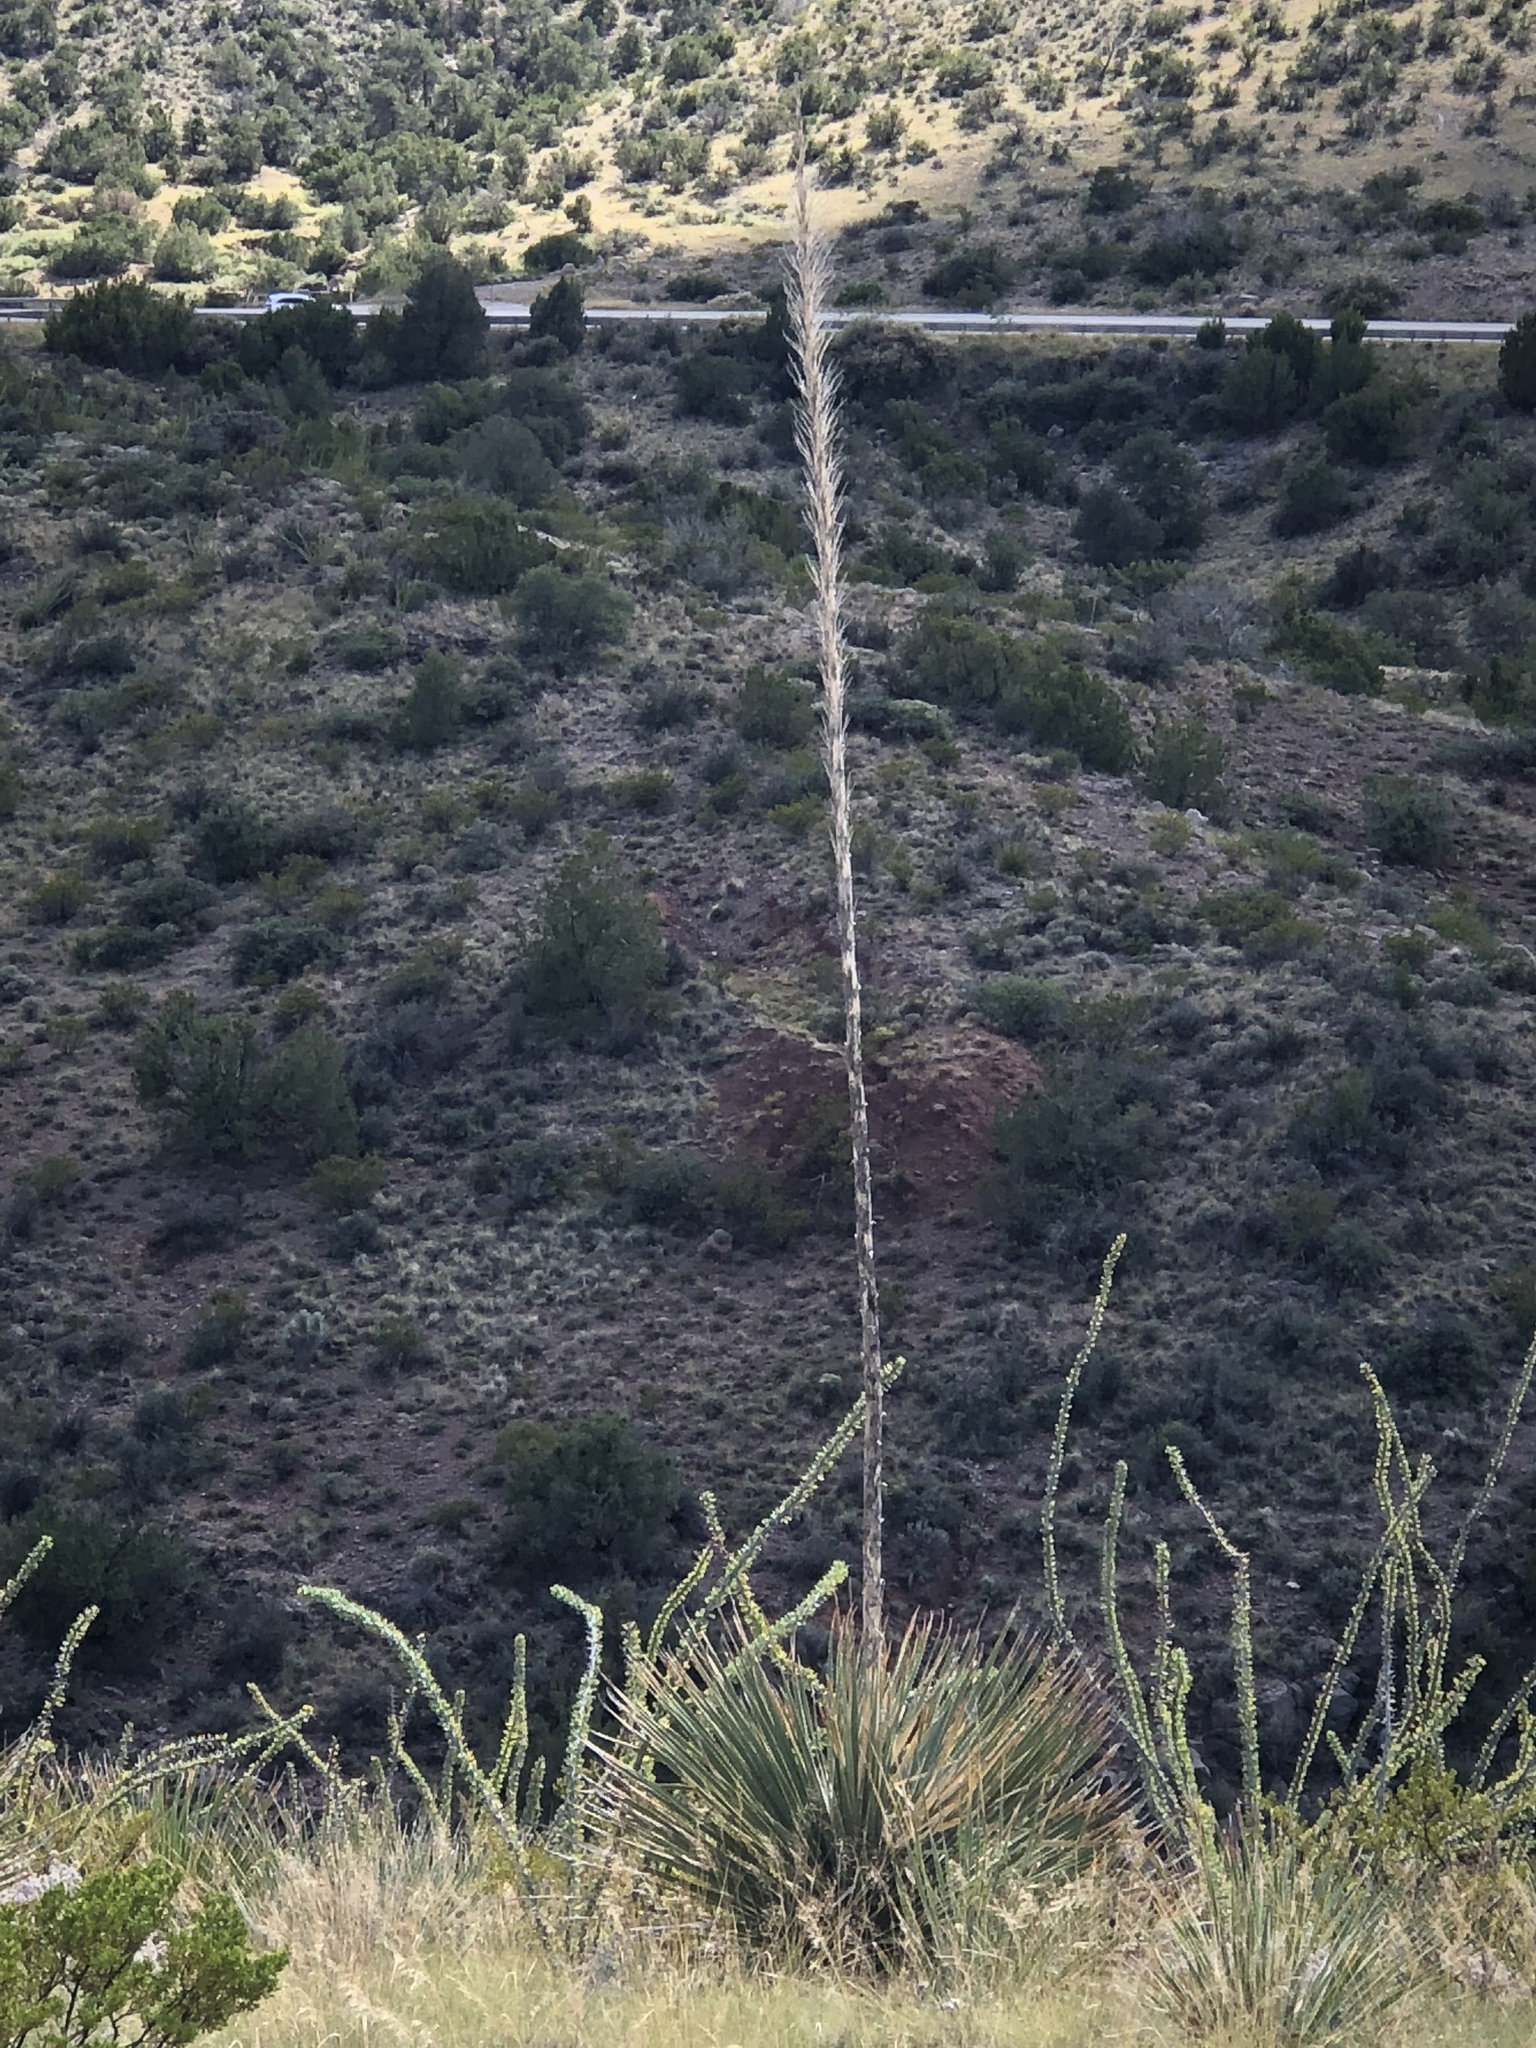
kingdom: Plantae
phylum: Tracheophyta
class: Liliopsida
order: Asparagales
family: Asparagaceae
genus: Dasylirion
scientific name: Dasylirion wheeleri
